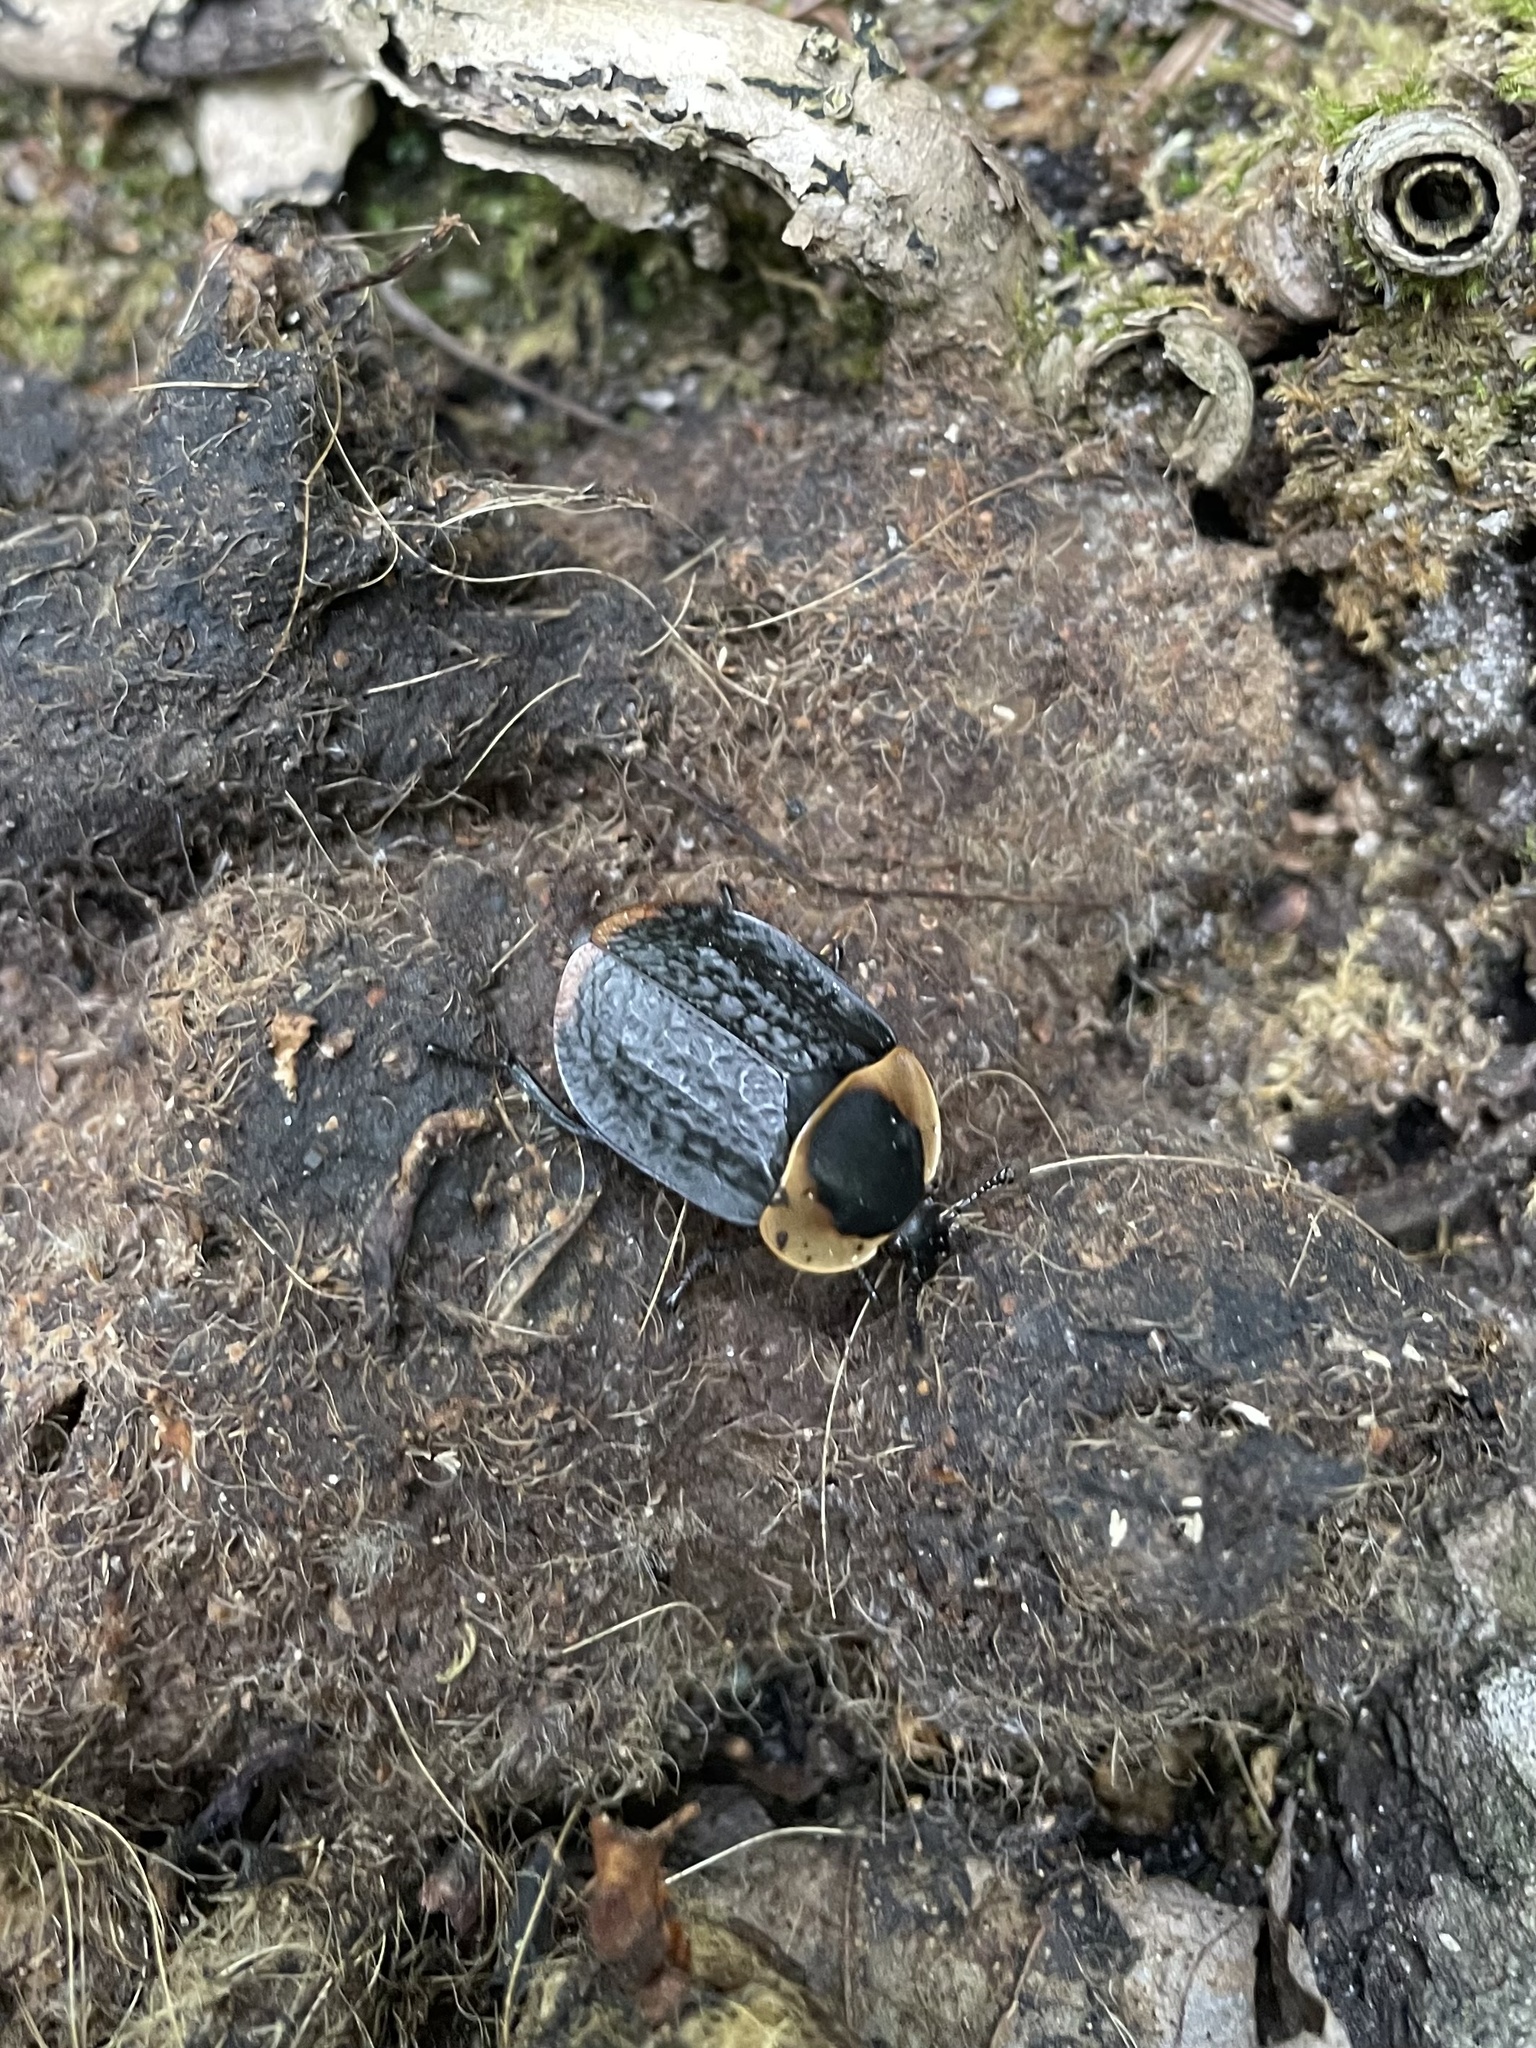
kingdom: Animalia
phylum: Arthropoda
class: Insecta
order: Coleoptera
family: Staphylinidae
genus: Necrophila
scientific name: Necrophila americana
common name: American carrion beetle
